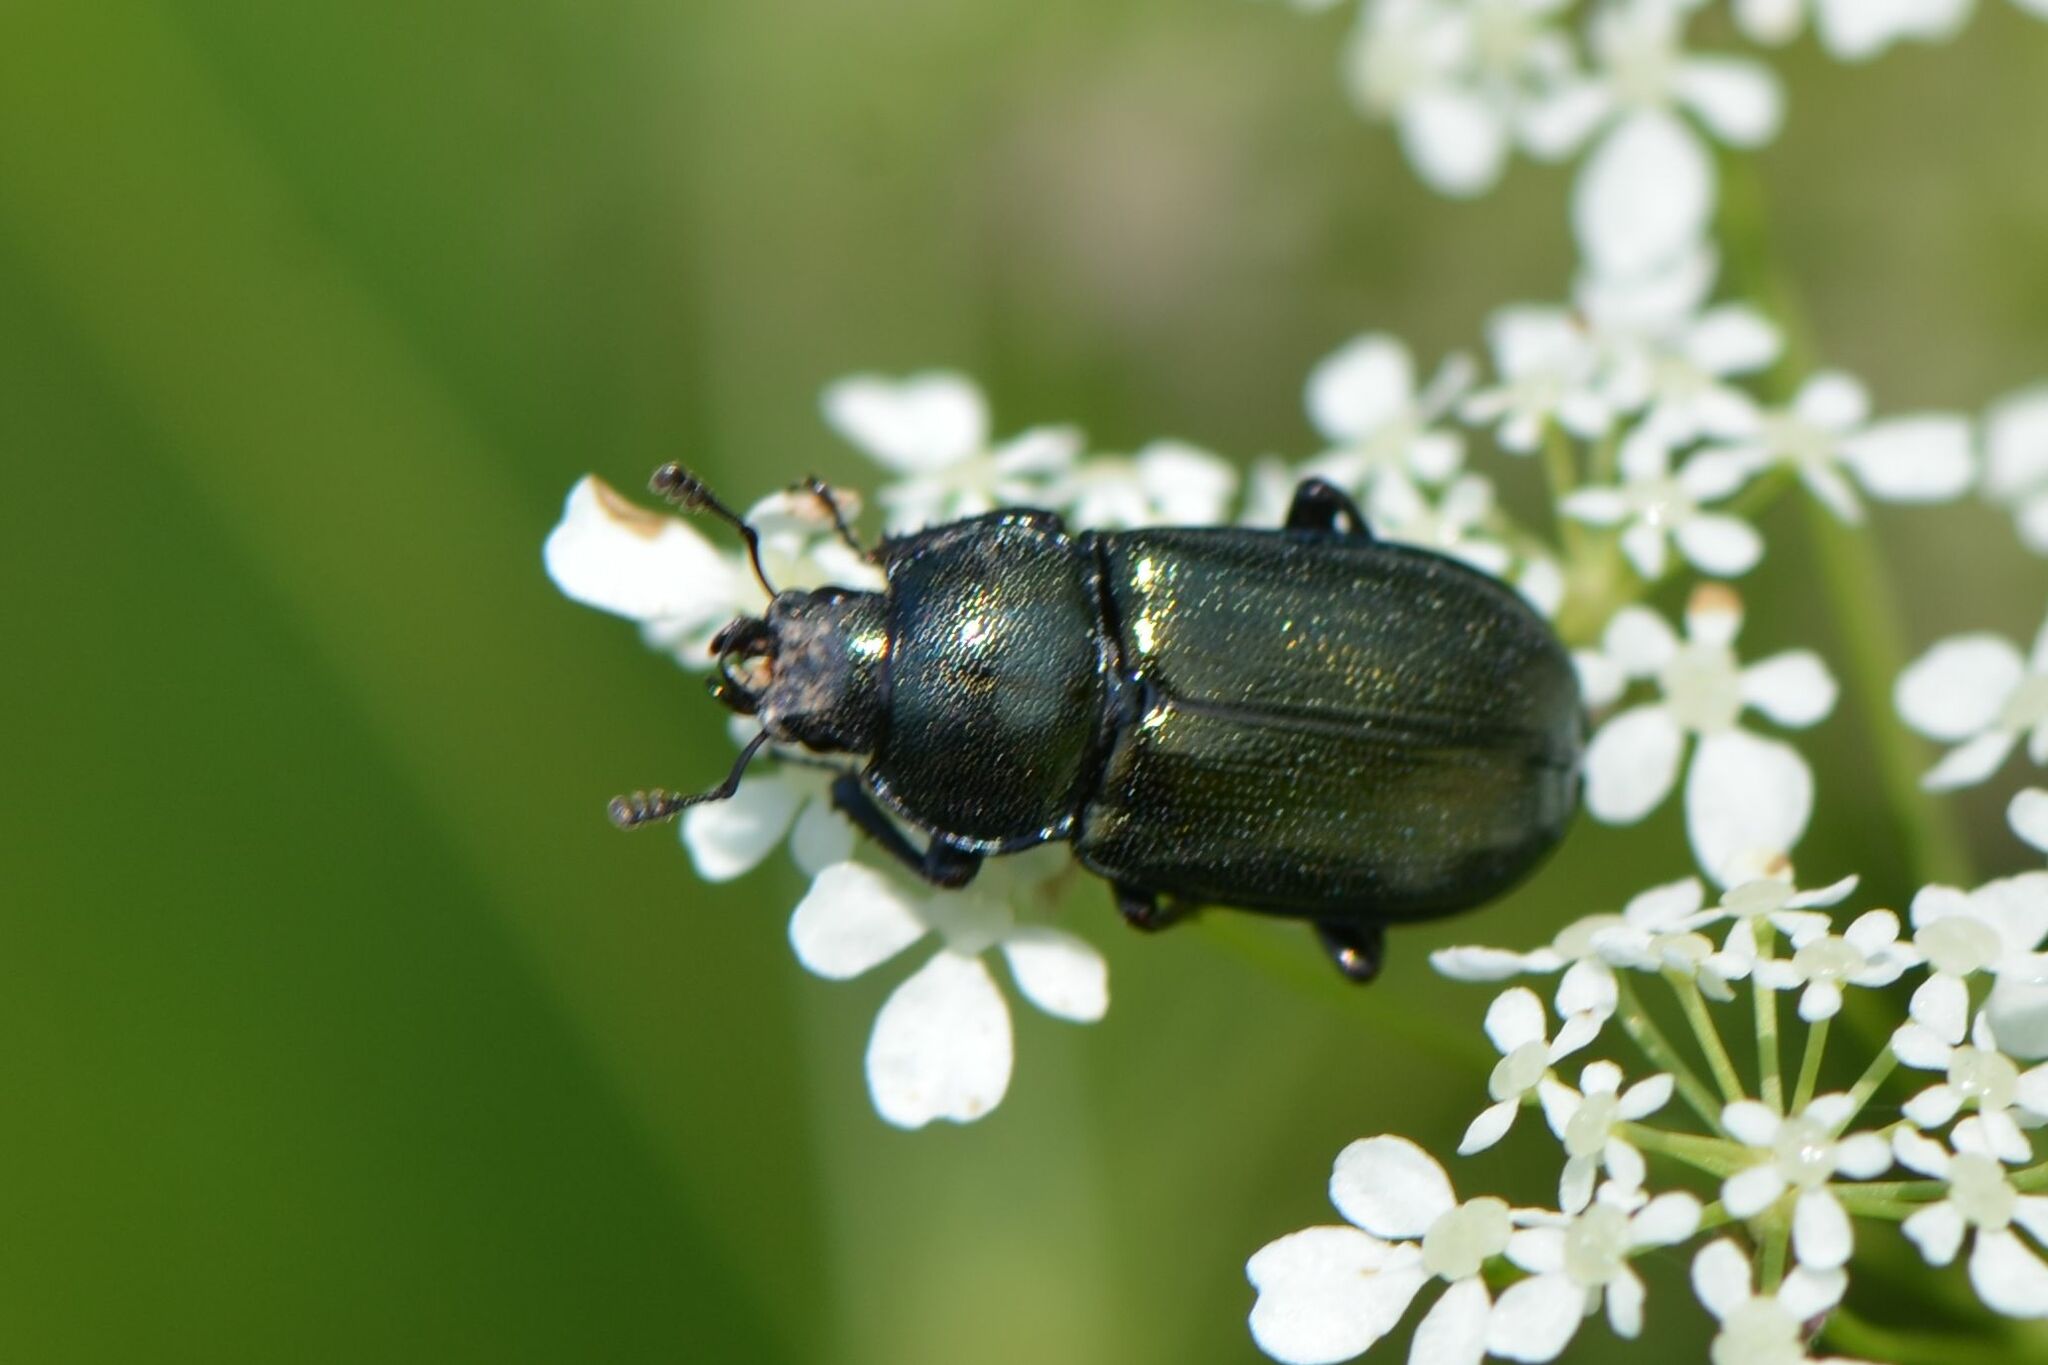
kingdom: Animalia
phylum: Arthropoda
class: Insecta
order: Coleoptera
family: Lucanidae
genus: Platycerus
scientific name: Platycerus caraboides
